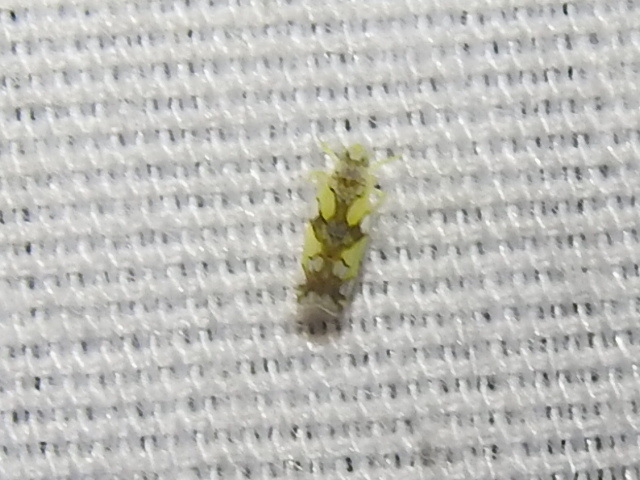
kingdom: Animalia
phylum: Arthropoda
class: Insecta
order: Hemiptera
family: Cicadellidae
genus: Protalebrella
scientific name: Protalebrella conica
